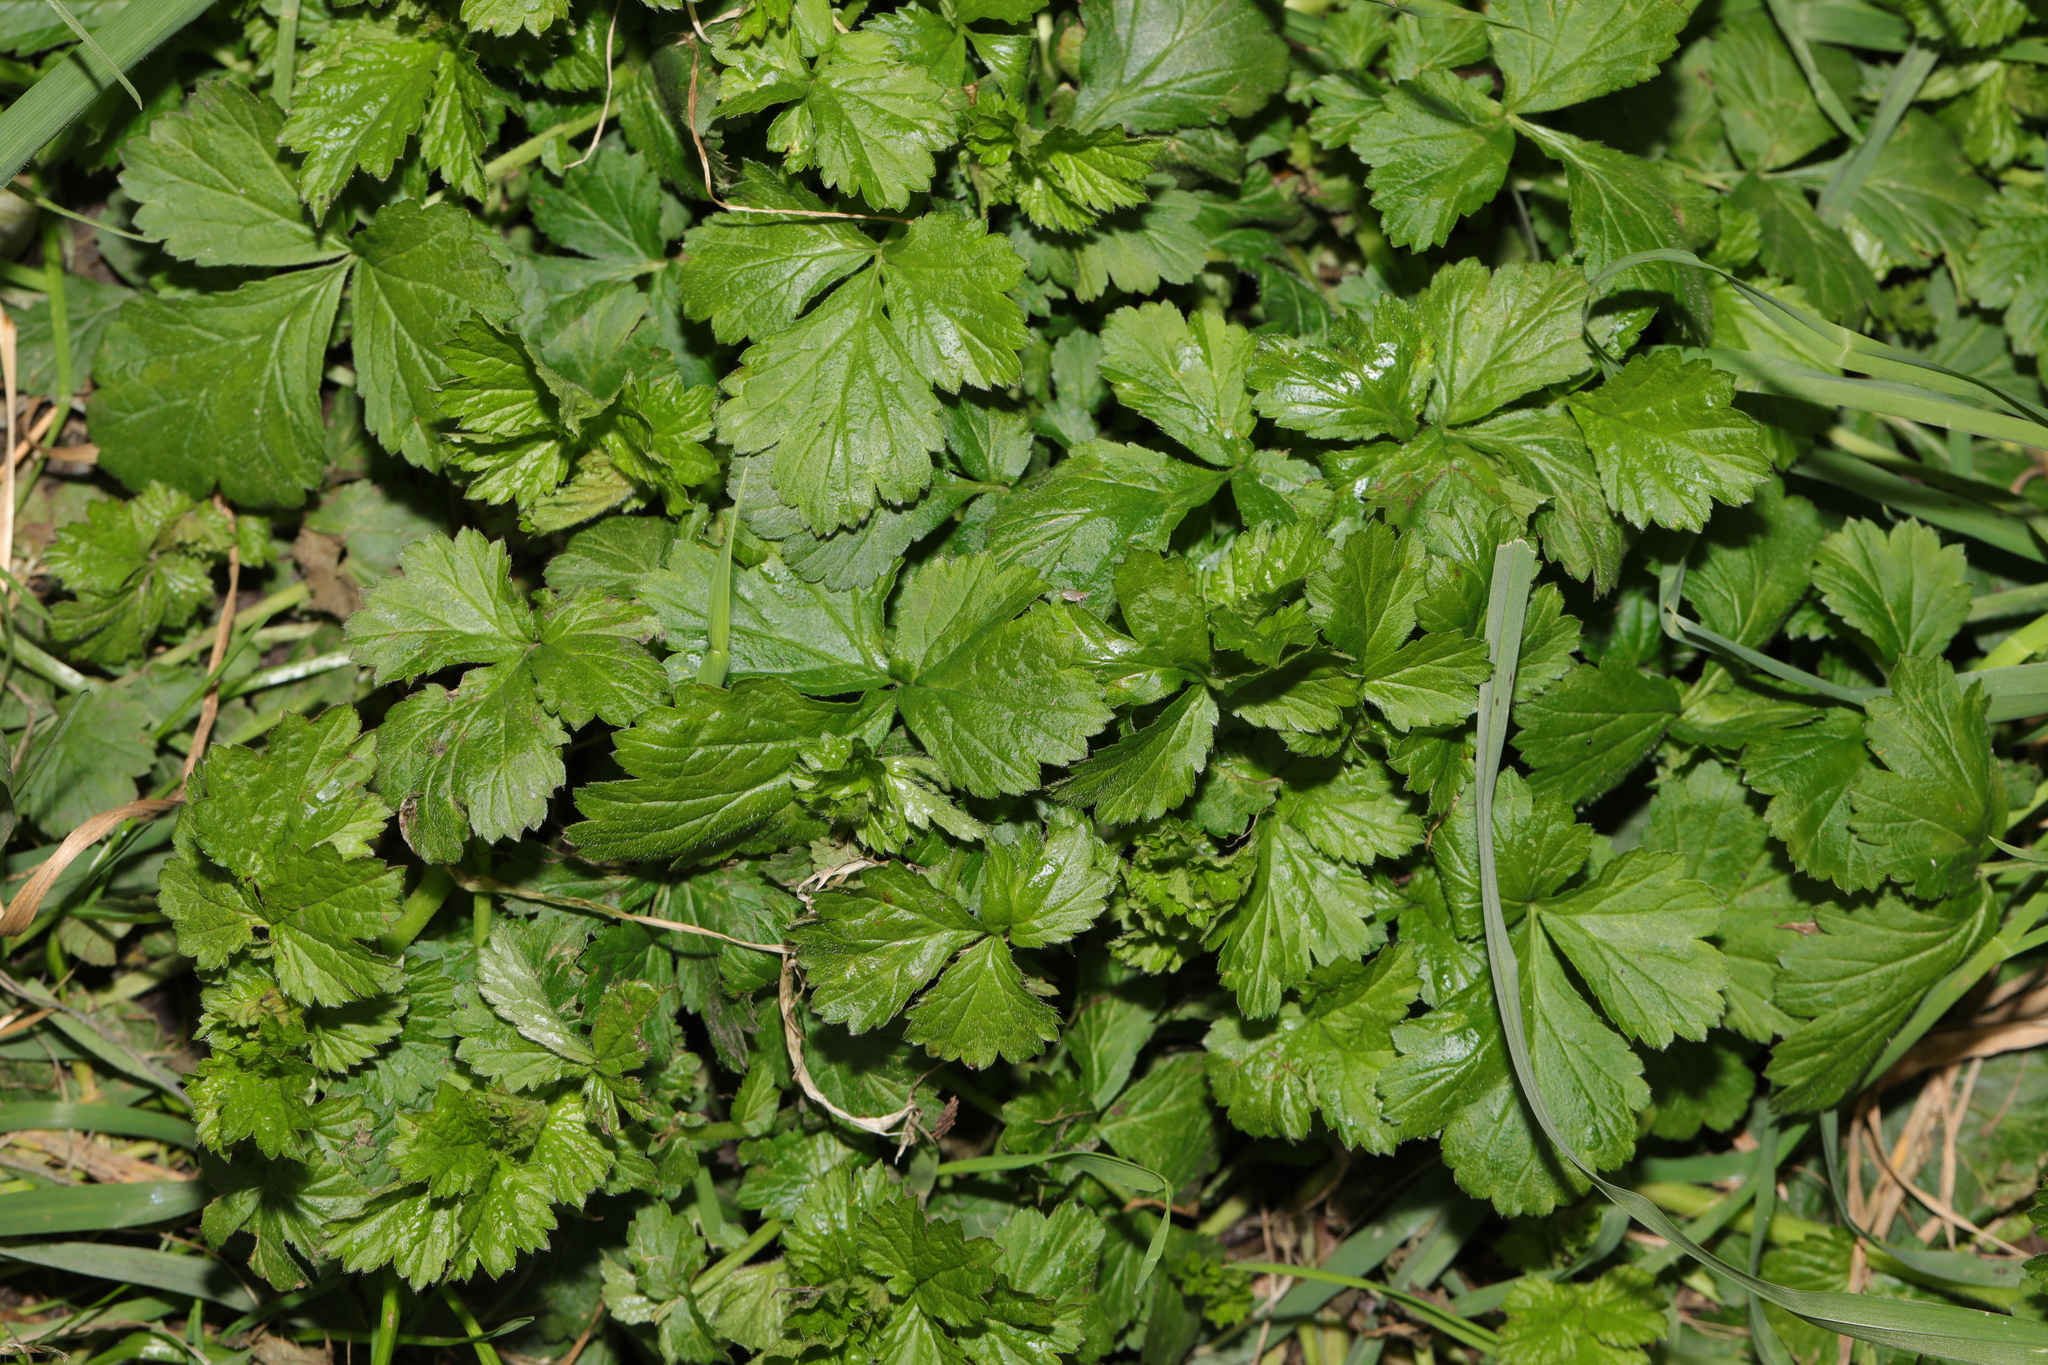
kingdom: Plantae
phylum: Tracheophyta
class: Magnoliopsida
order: Rosales
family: Rosaceae
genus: Geum
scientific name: Geum urbanum
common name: Wood avens
